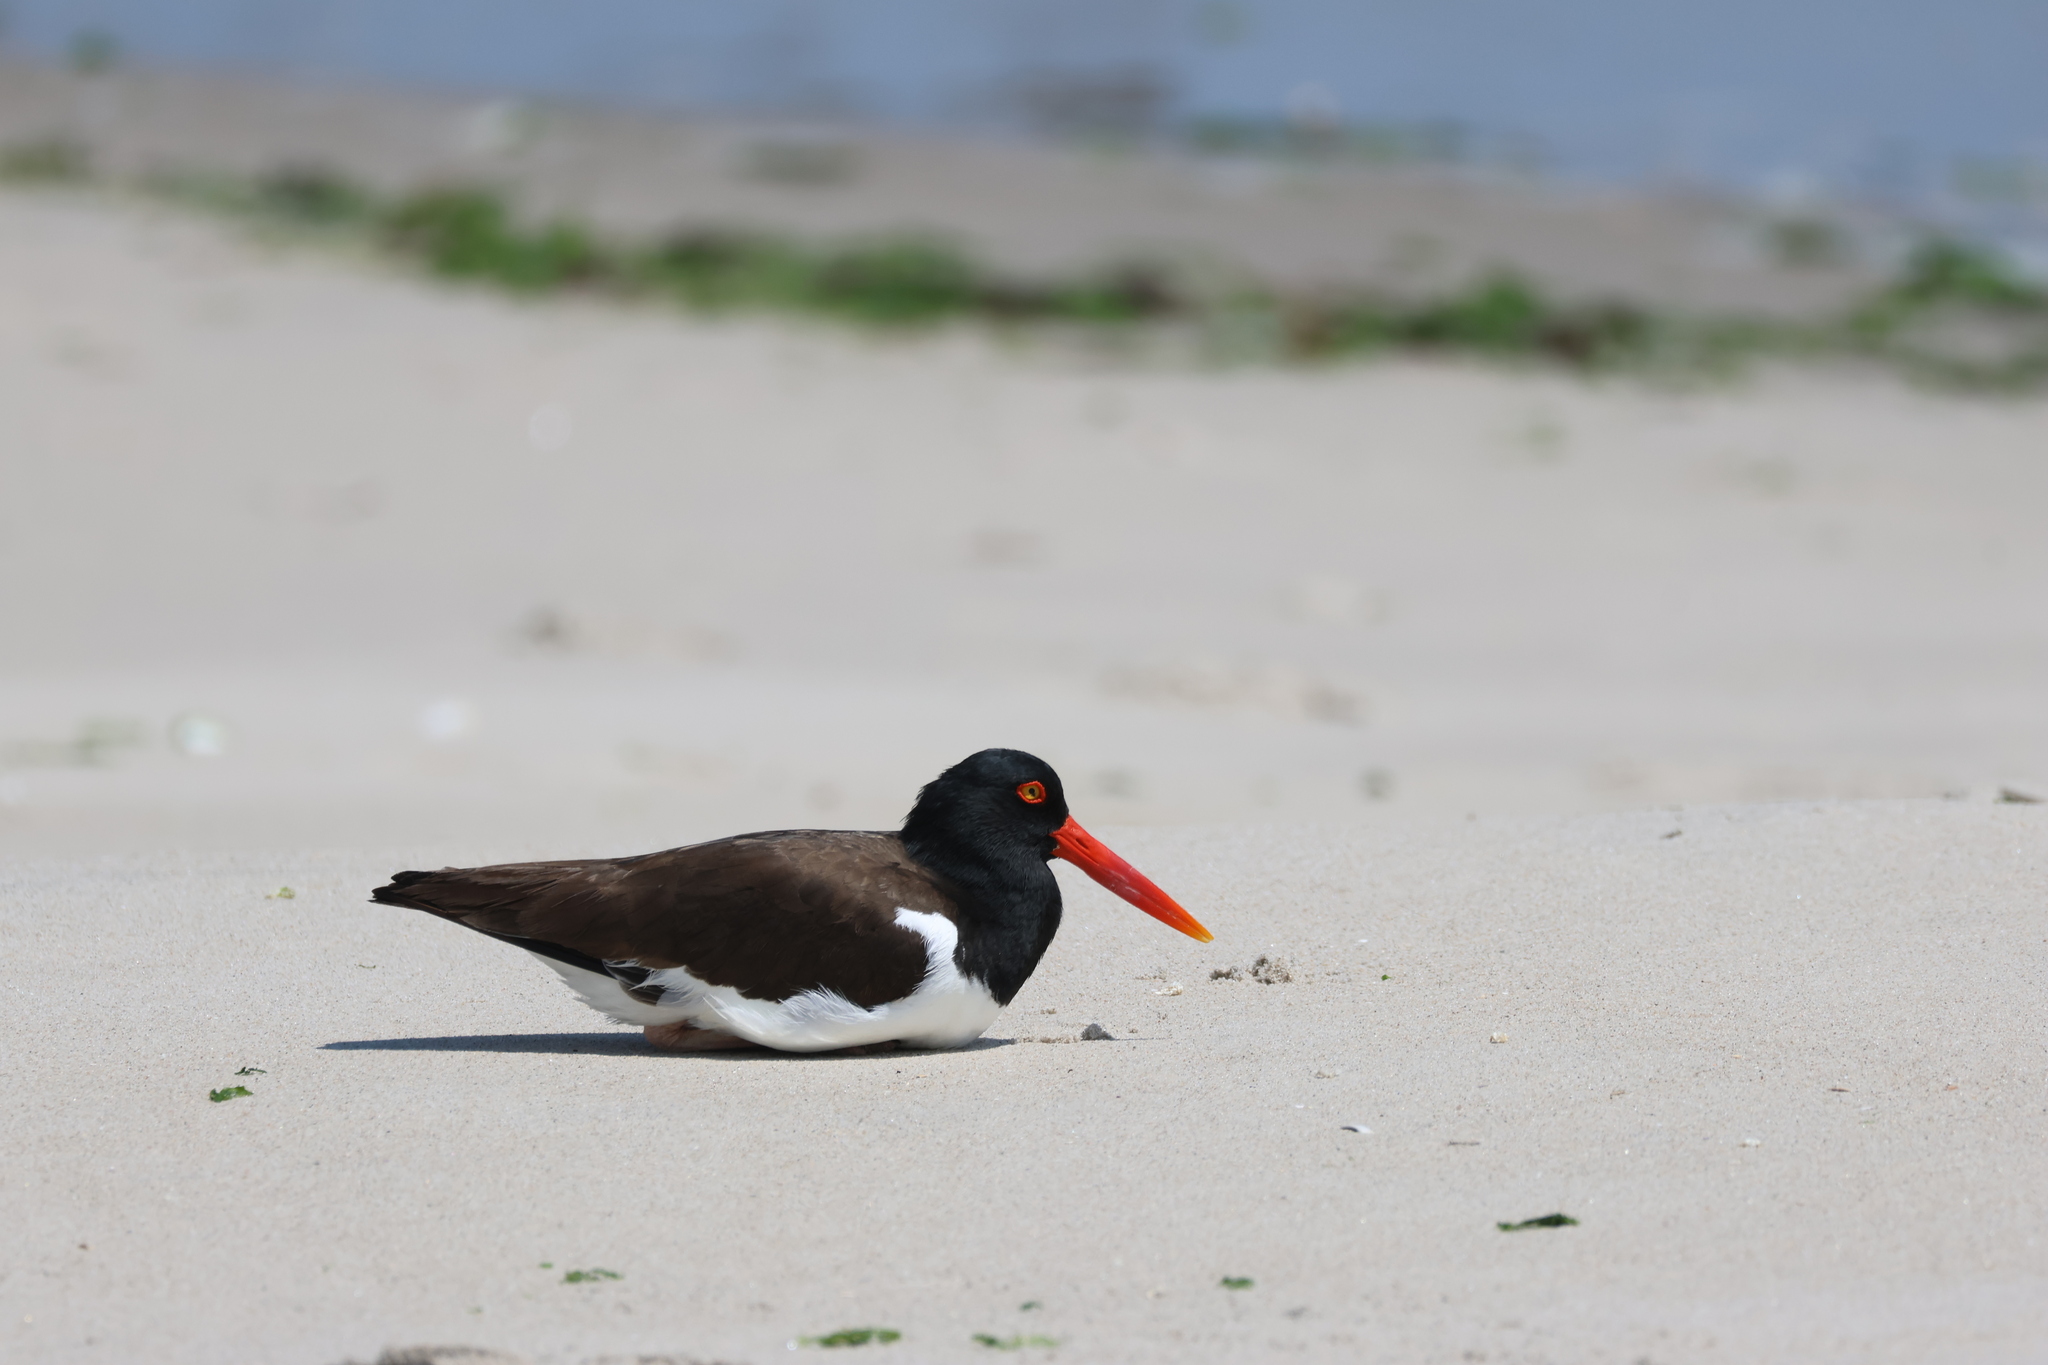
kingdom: Animalia
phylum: Chordata
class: Aves
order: Charadriiformes
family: Haematopodidae
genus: Haematopus
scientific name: Haematopus palliatus
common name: American oystercatcher
